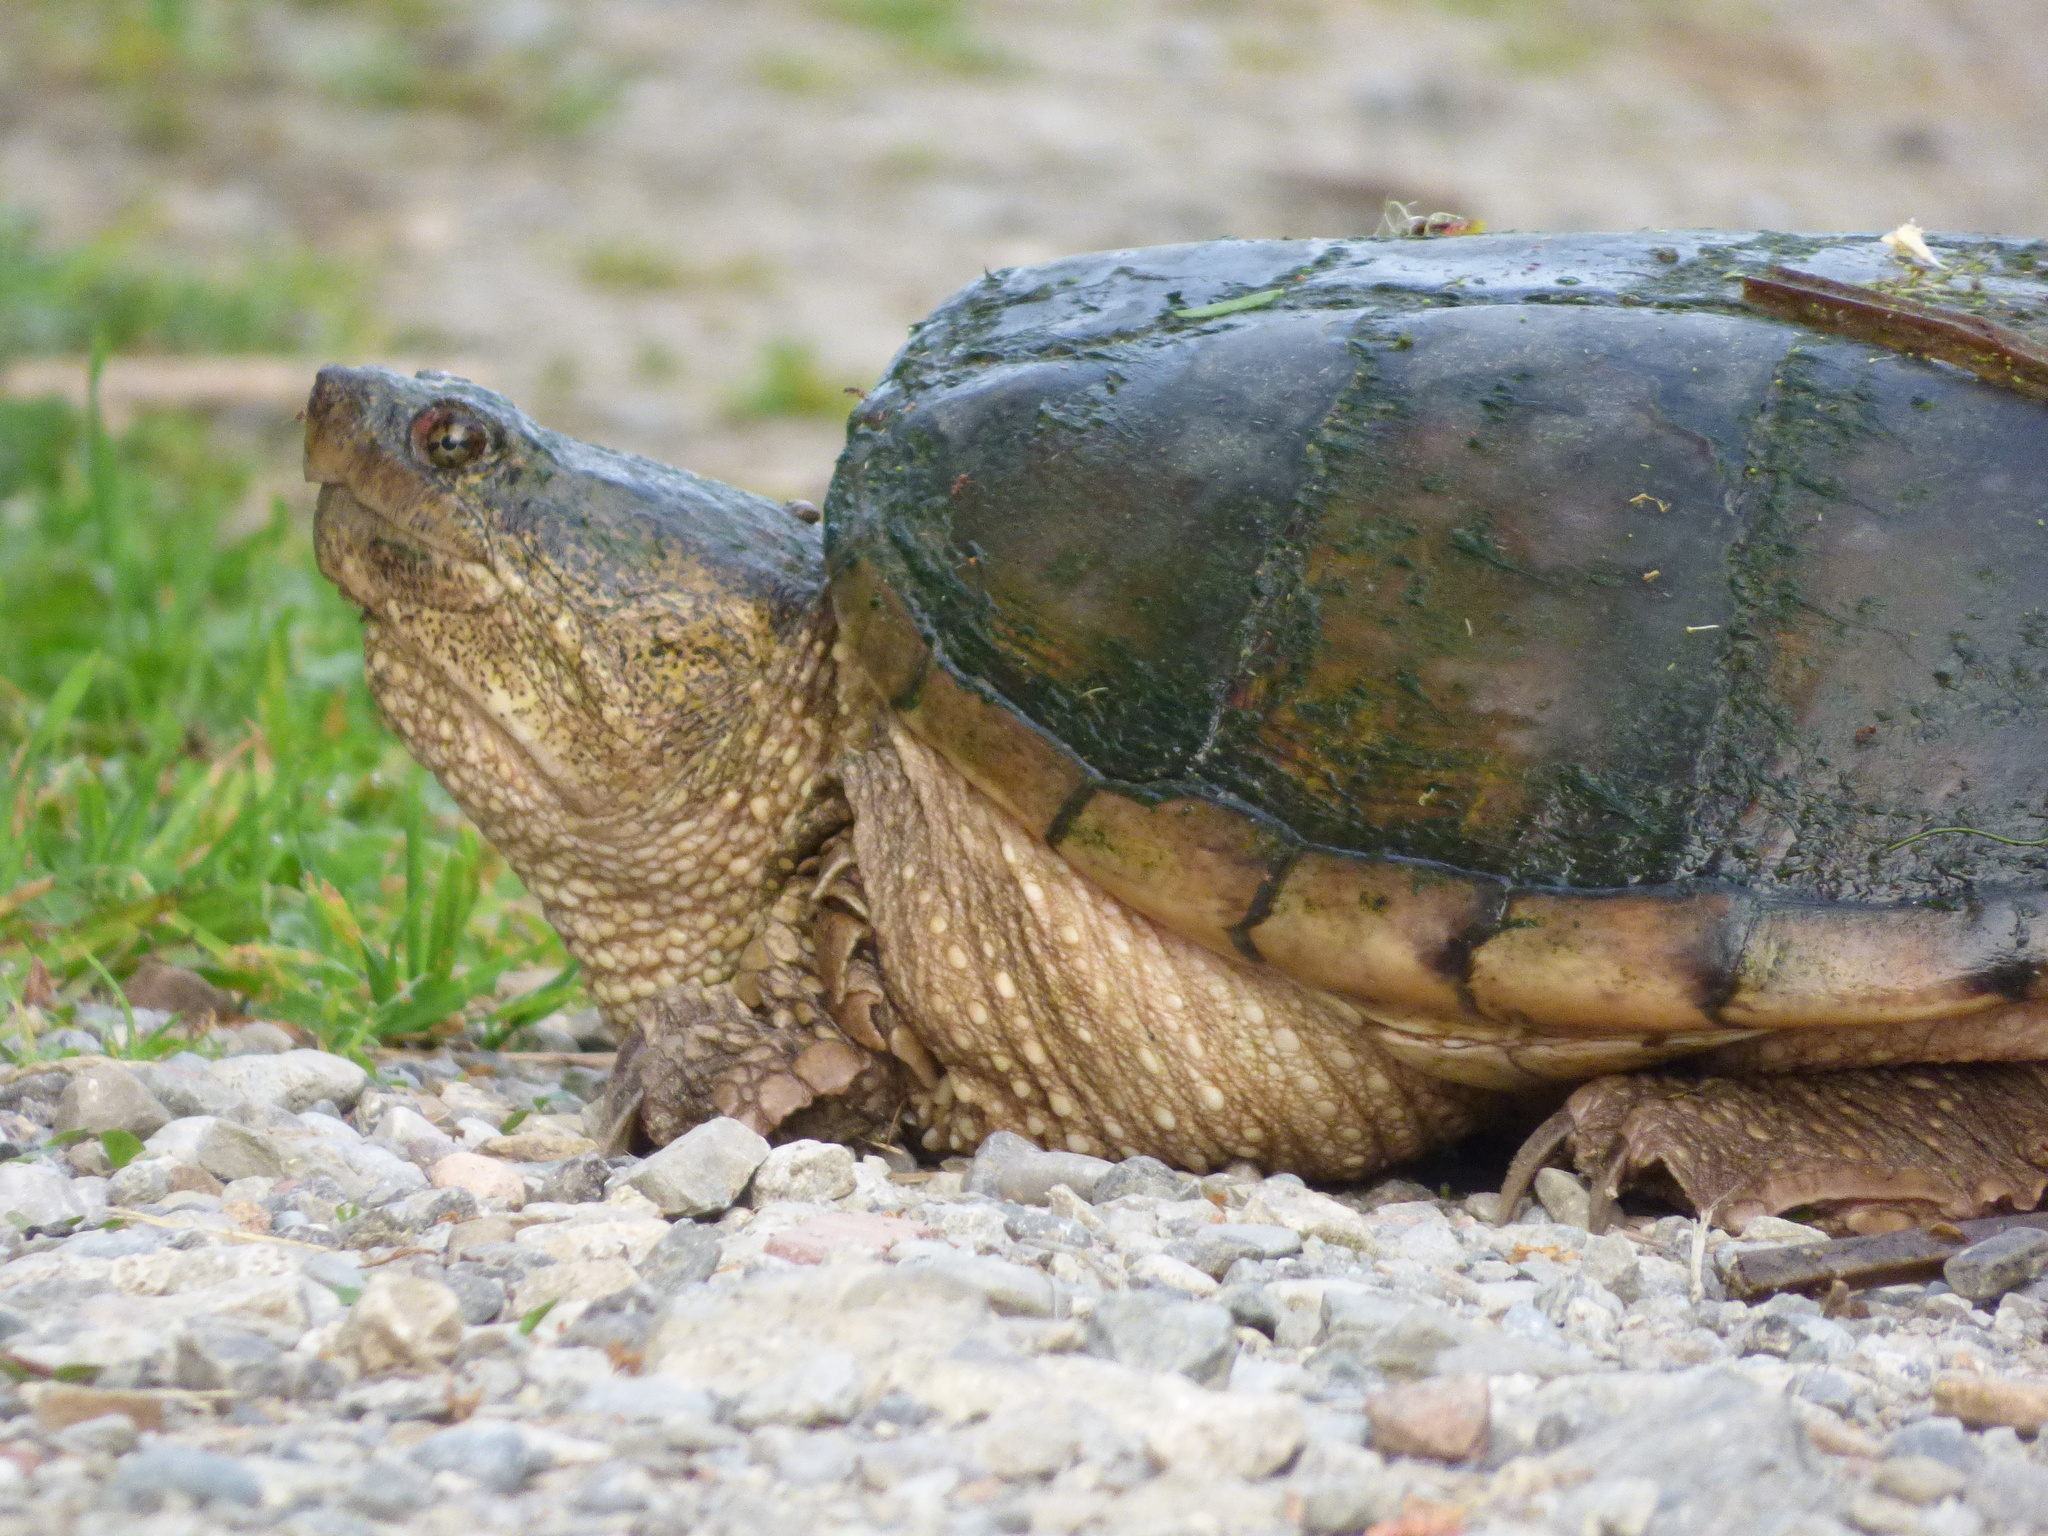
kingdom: Animalia
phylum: Chordata
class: Testudines
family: Chelydridae
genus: Chelydra
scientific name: Chelydra serpentina
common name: Common snapping turtle
